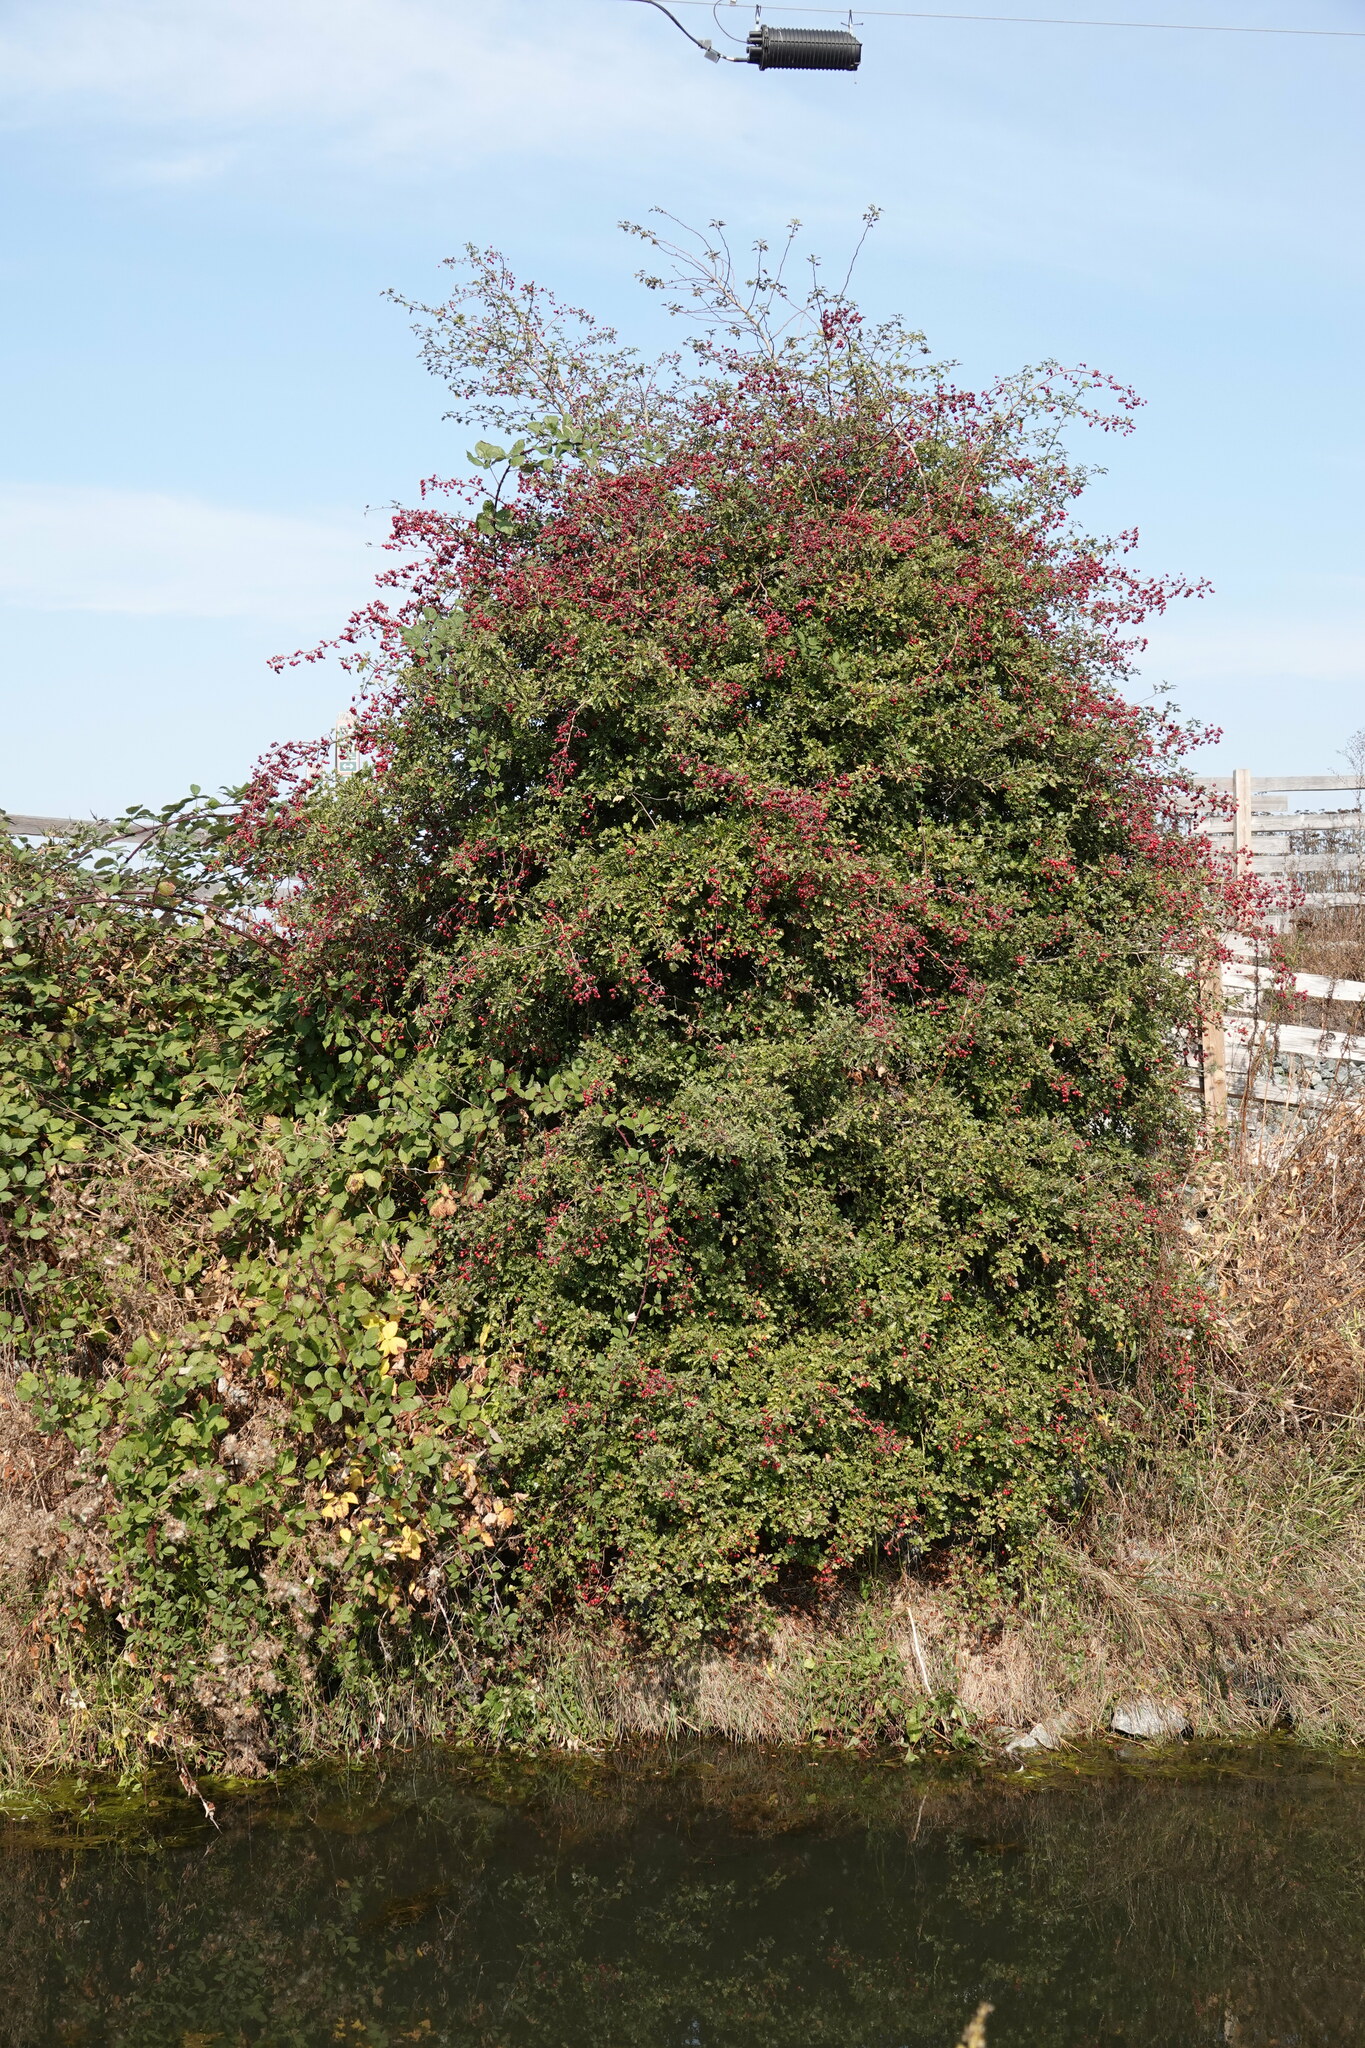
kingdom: Plantae
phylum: Tracheophyta
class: Magnoliopsida
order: Rosales
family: Rosaceae
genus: Crataegus
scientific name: Crataegus monogyna
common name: Hawthorn
